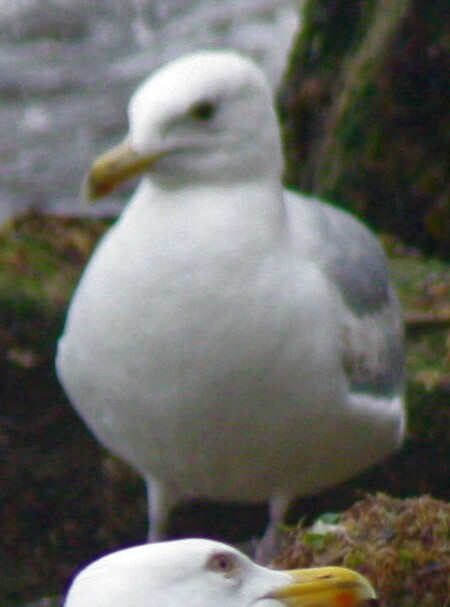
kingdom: Animalia
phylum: Chordata
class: Aves
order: Charadriiformes
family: Laridae
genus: Larus
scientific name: Larus argentatus
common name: Herring gull
